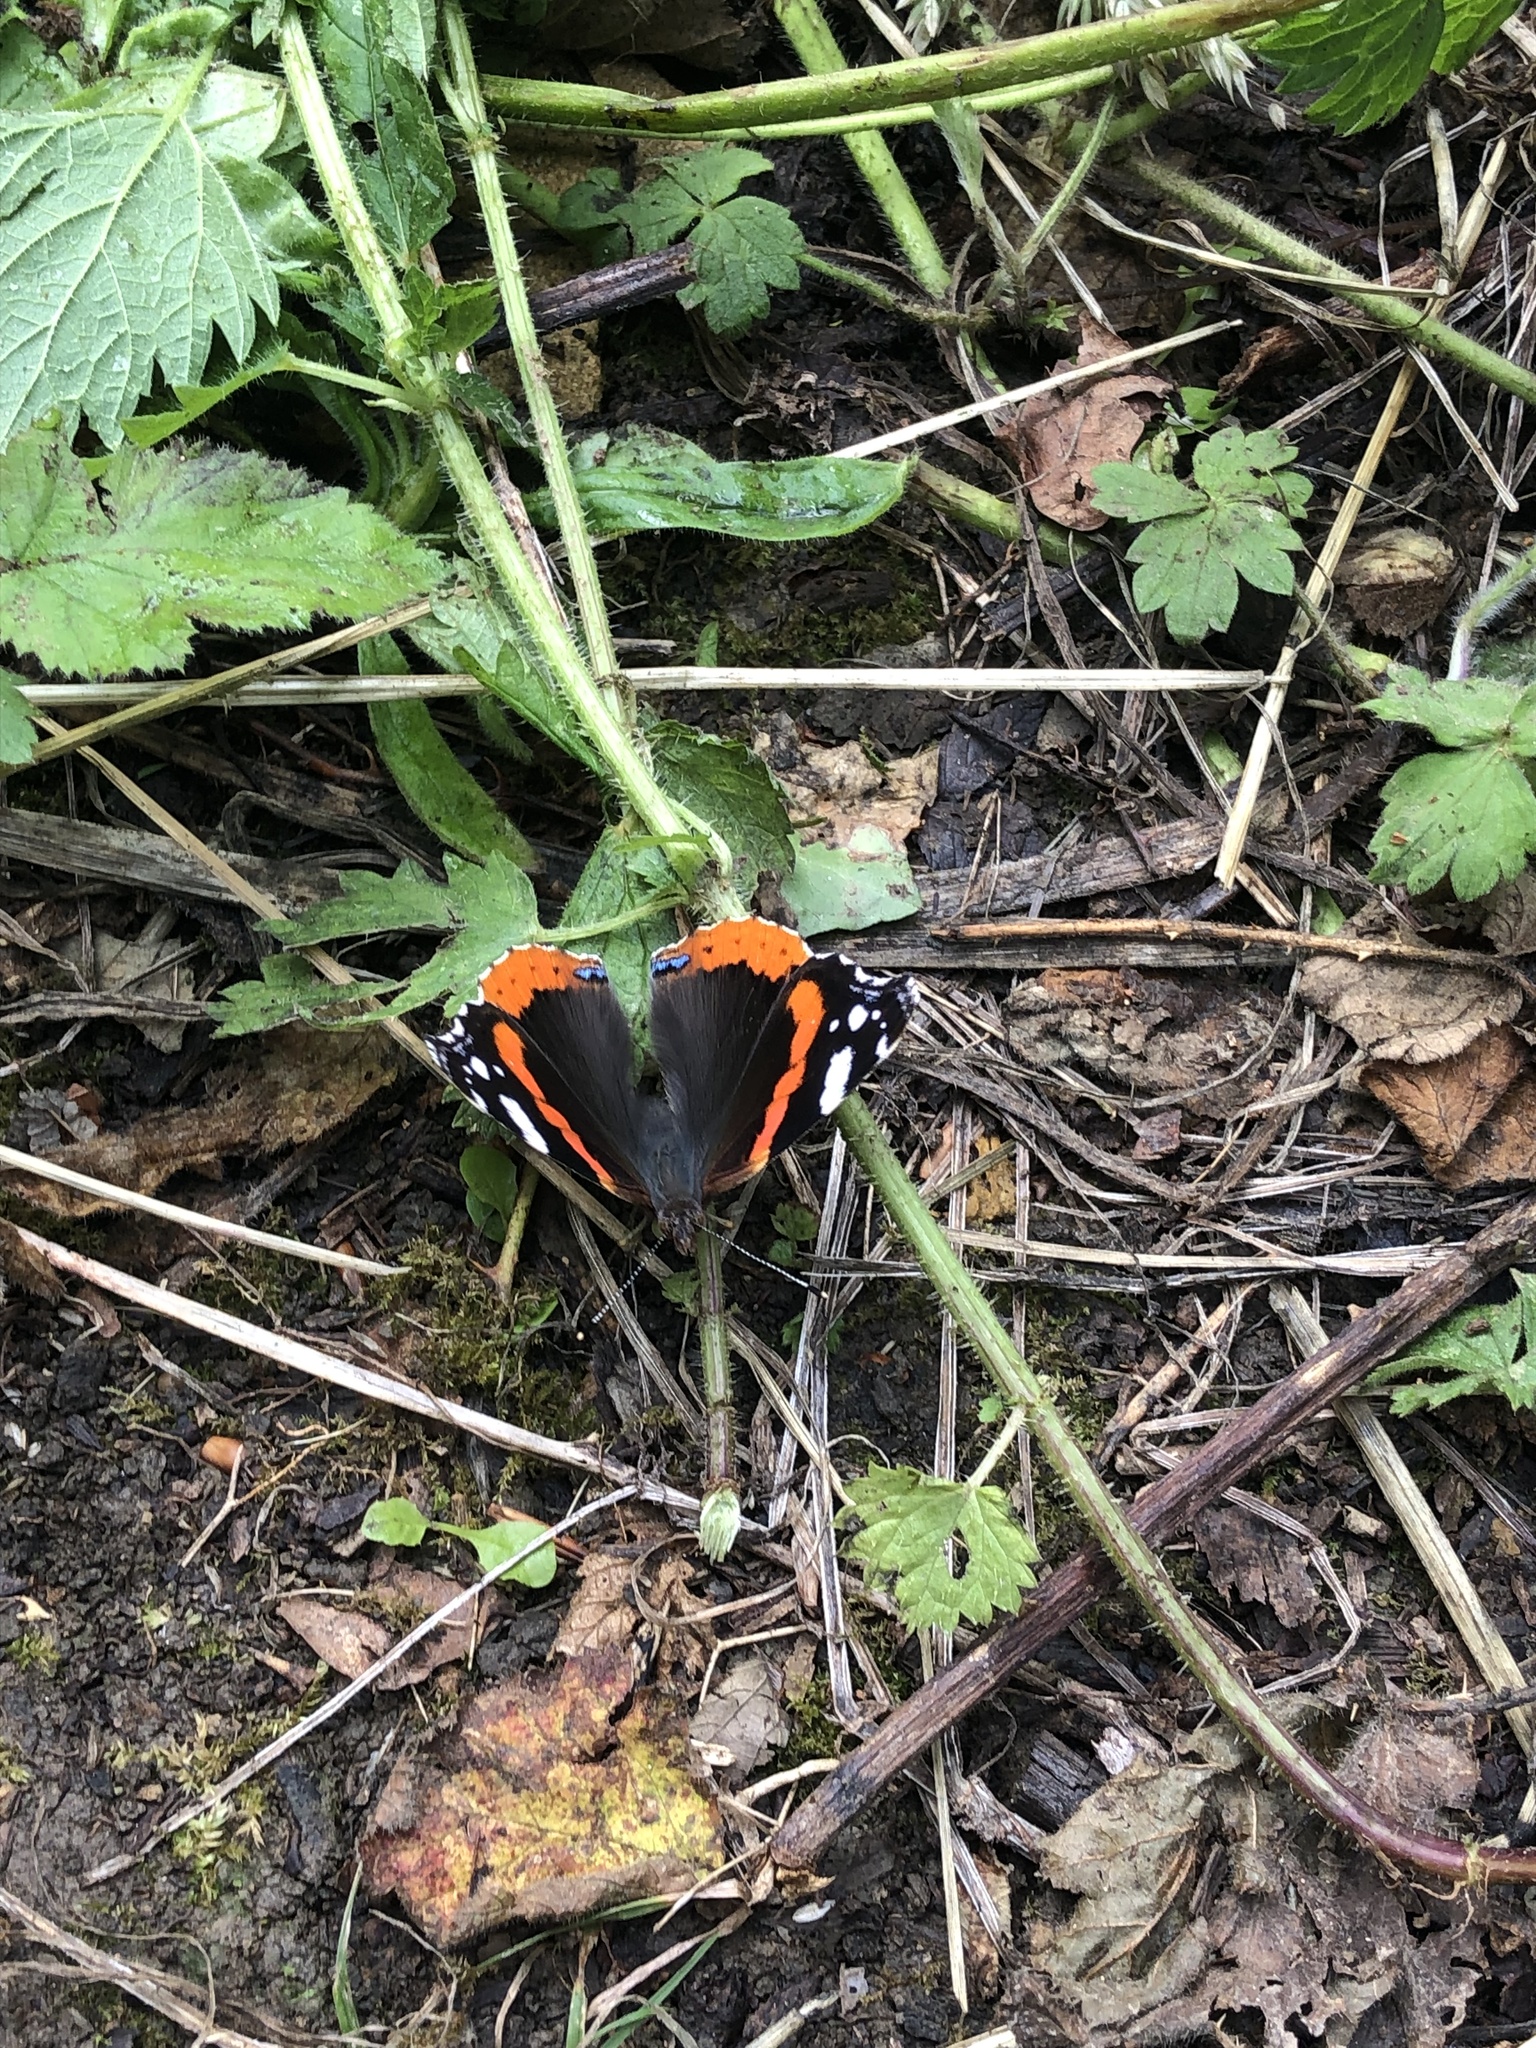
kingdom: Animalia
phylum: Arthropoda
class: Insecta
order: Lepidoptera
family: Nymphalidae
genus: Vanessa
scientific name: Vanessa atalanta
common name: Red admiral
